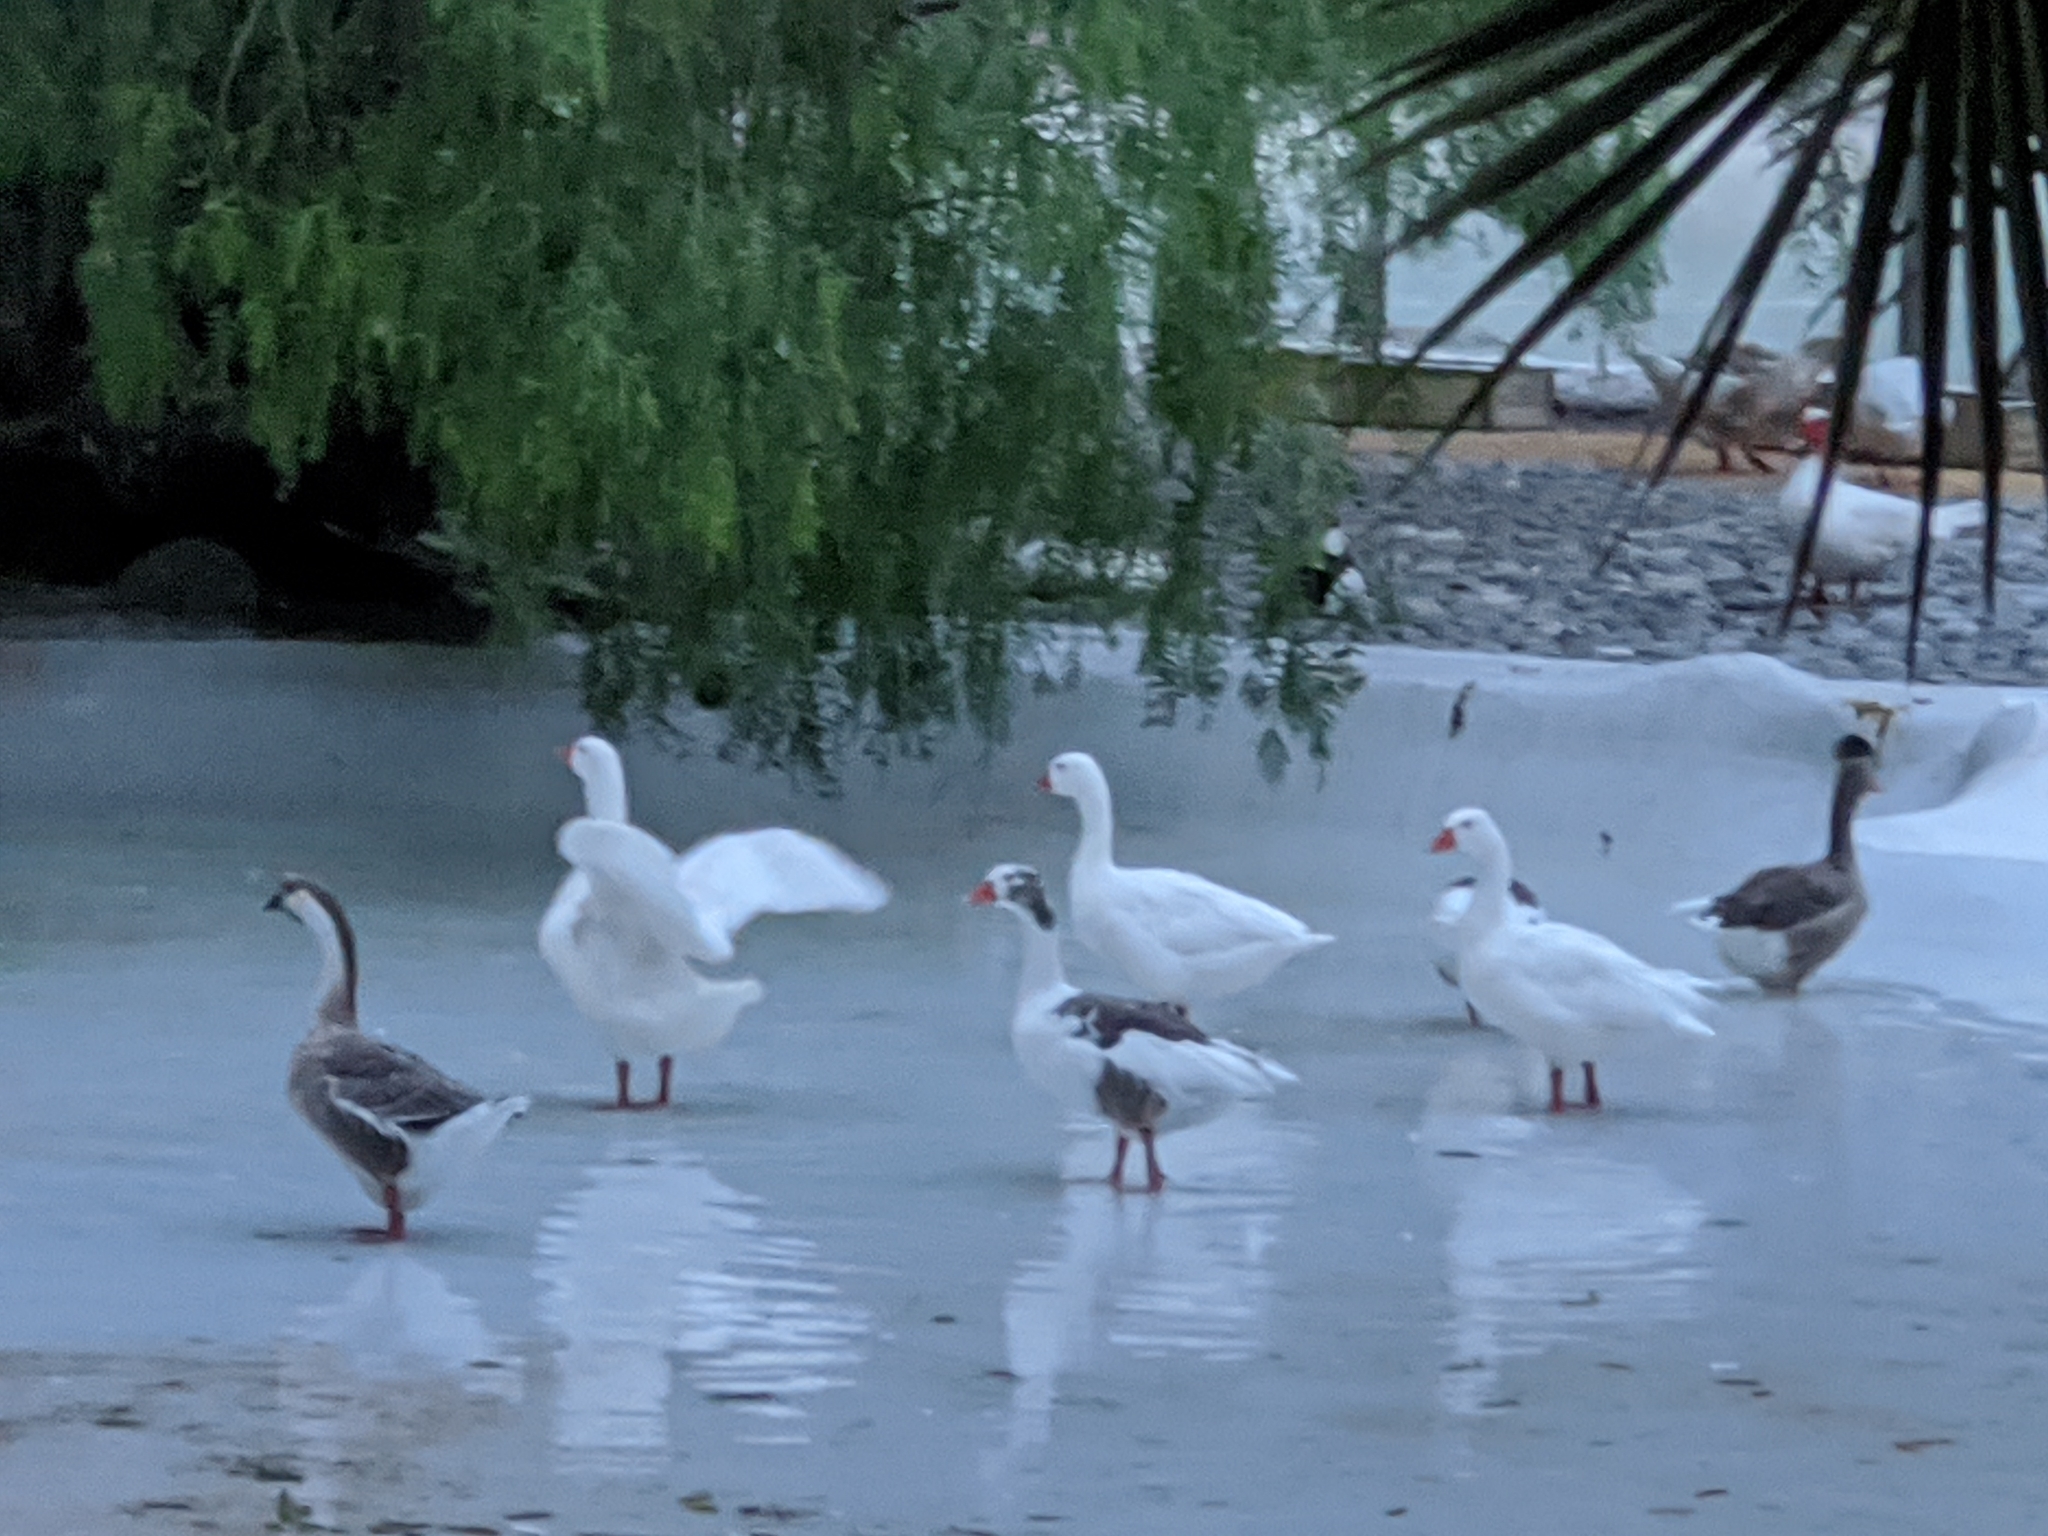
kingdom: Animalia
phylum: Chordata
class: Aves
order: Anseriformes
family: Anatidae
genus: Anser
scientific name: Anser anser
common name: Greylag goose
